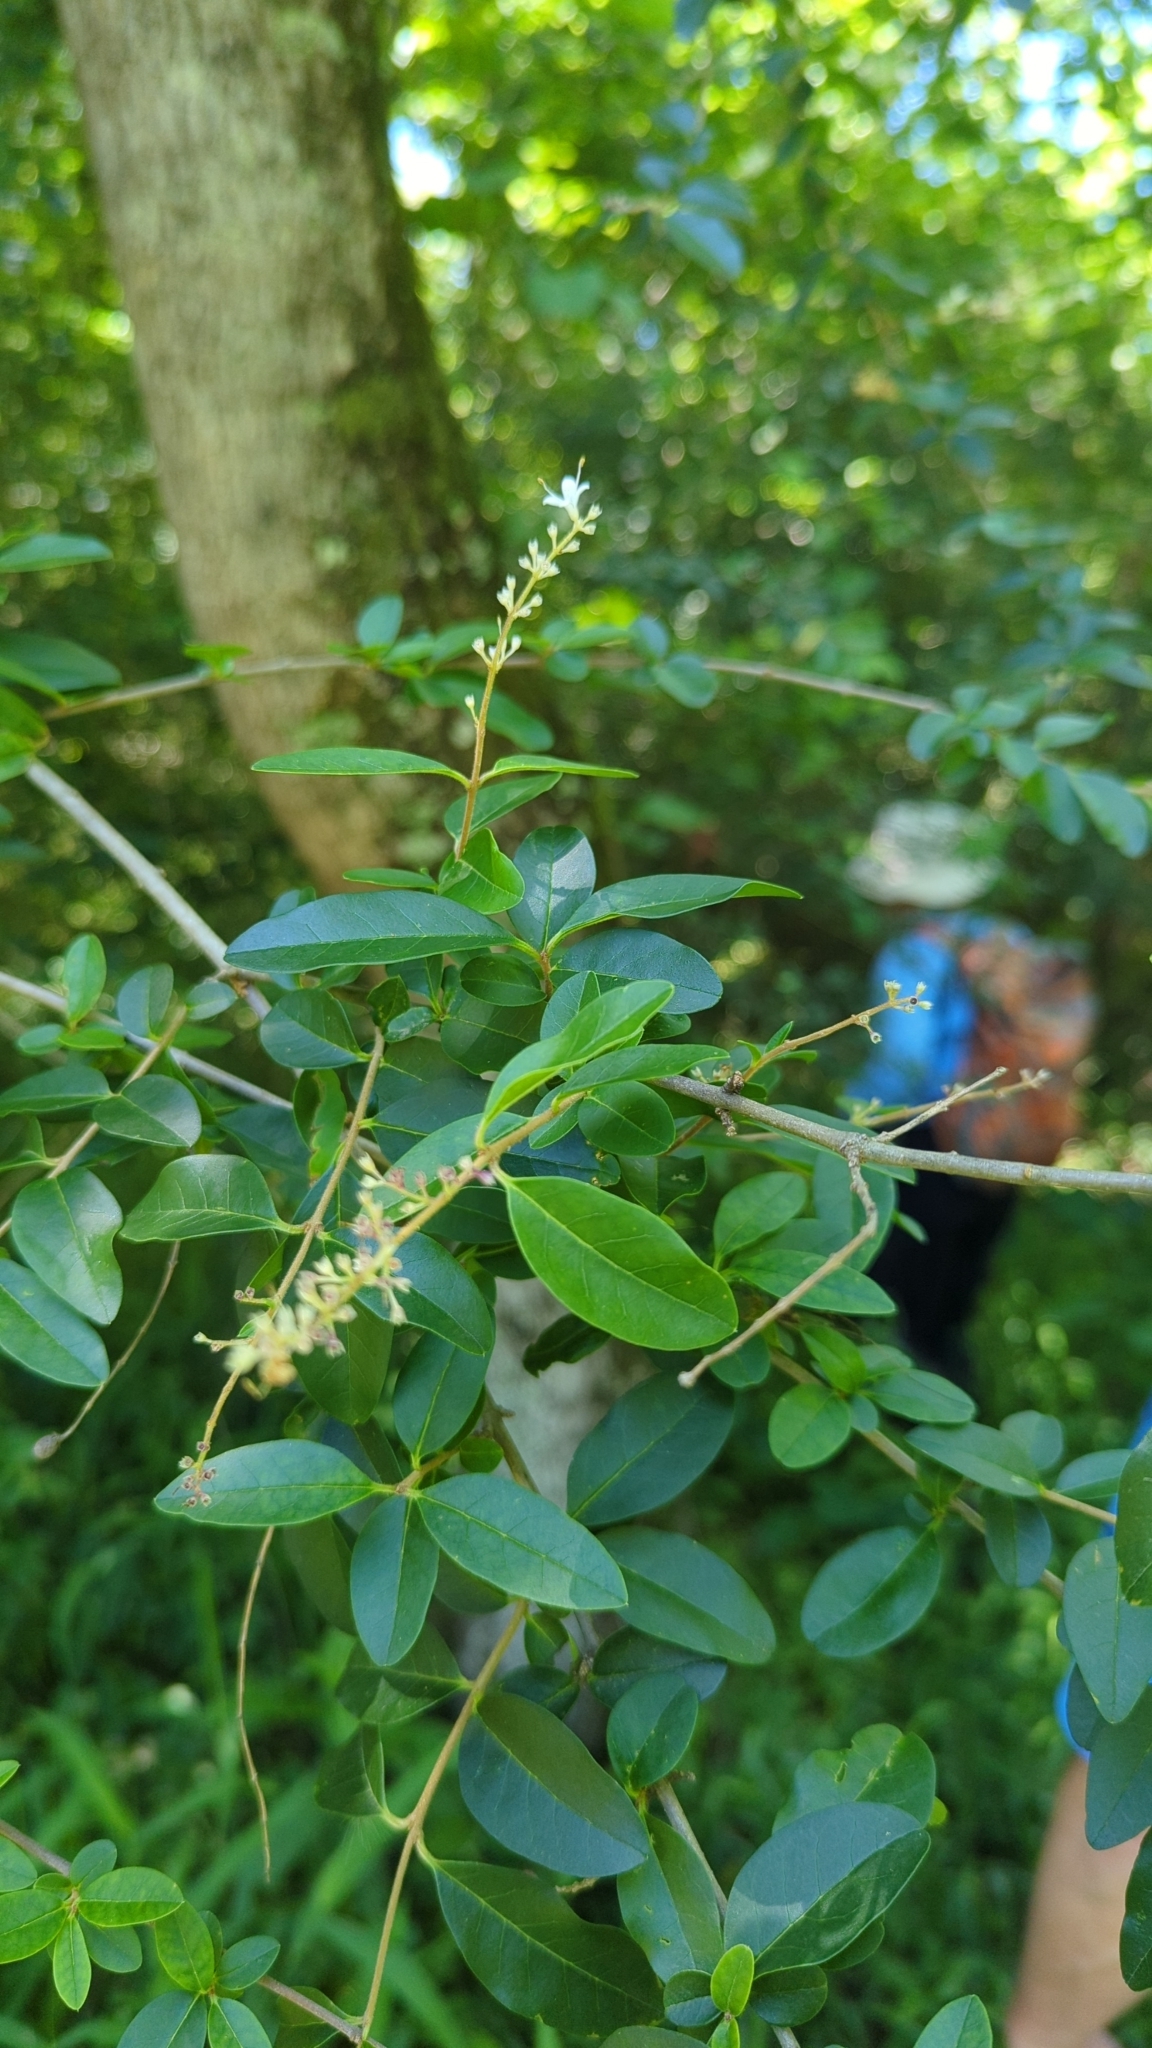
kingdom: Plantae
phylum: Tracheophyta
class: Magnoliopsida
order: Lamiales
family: Oleaceae
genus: Ligustrum
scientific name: Ligustrum sinense
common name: Chinese privet
